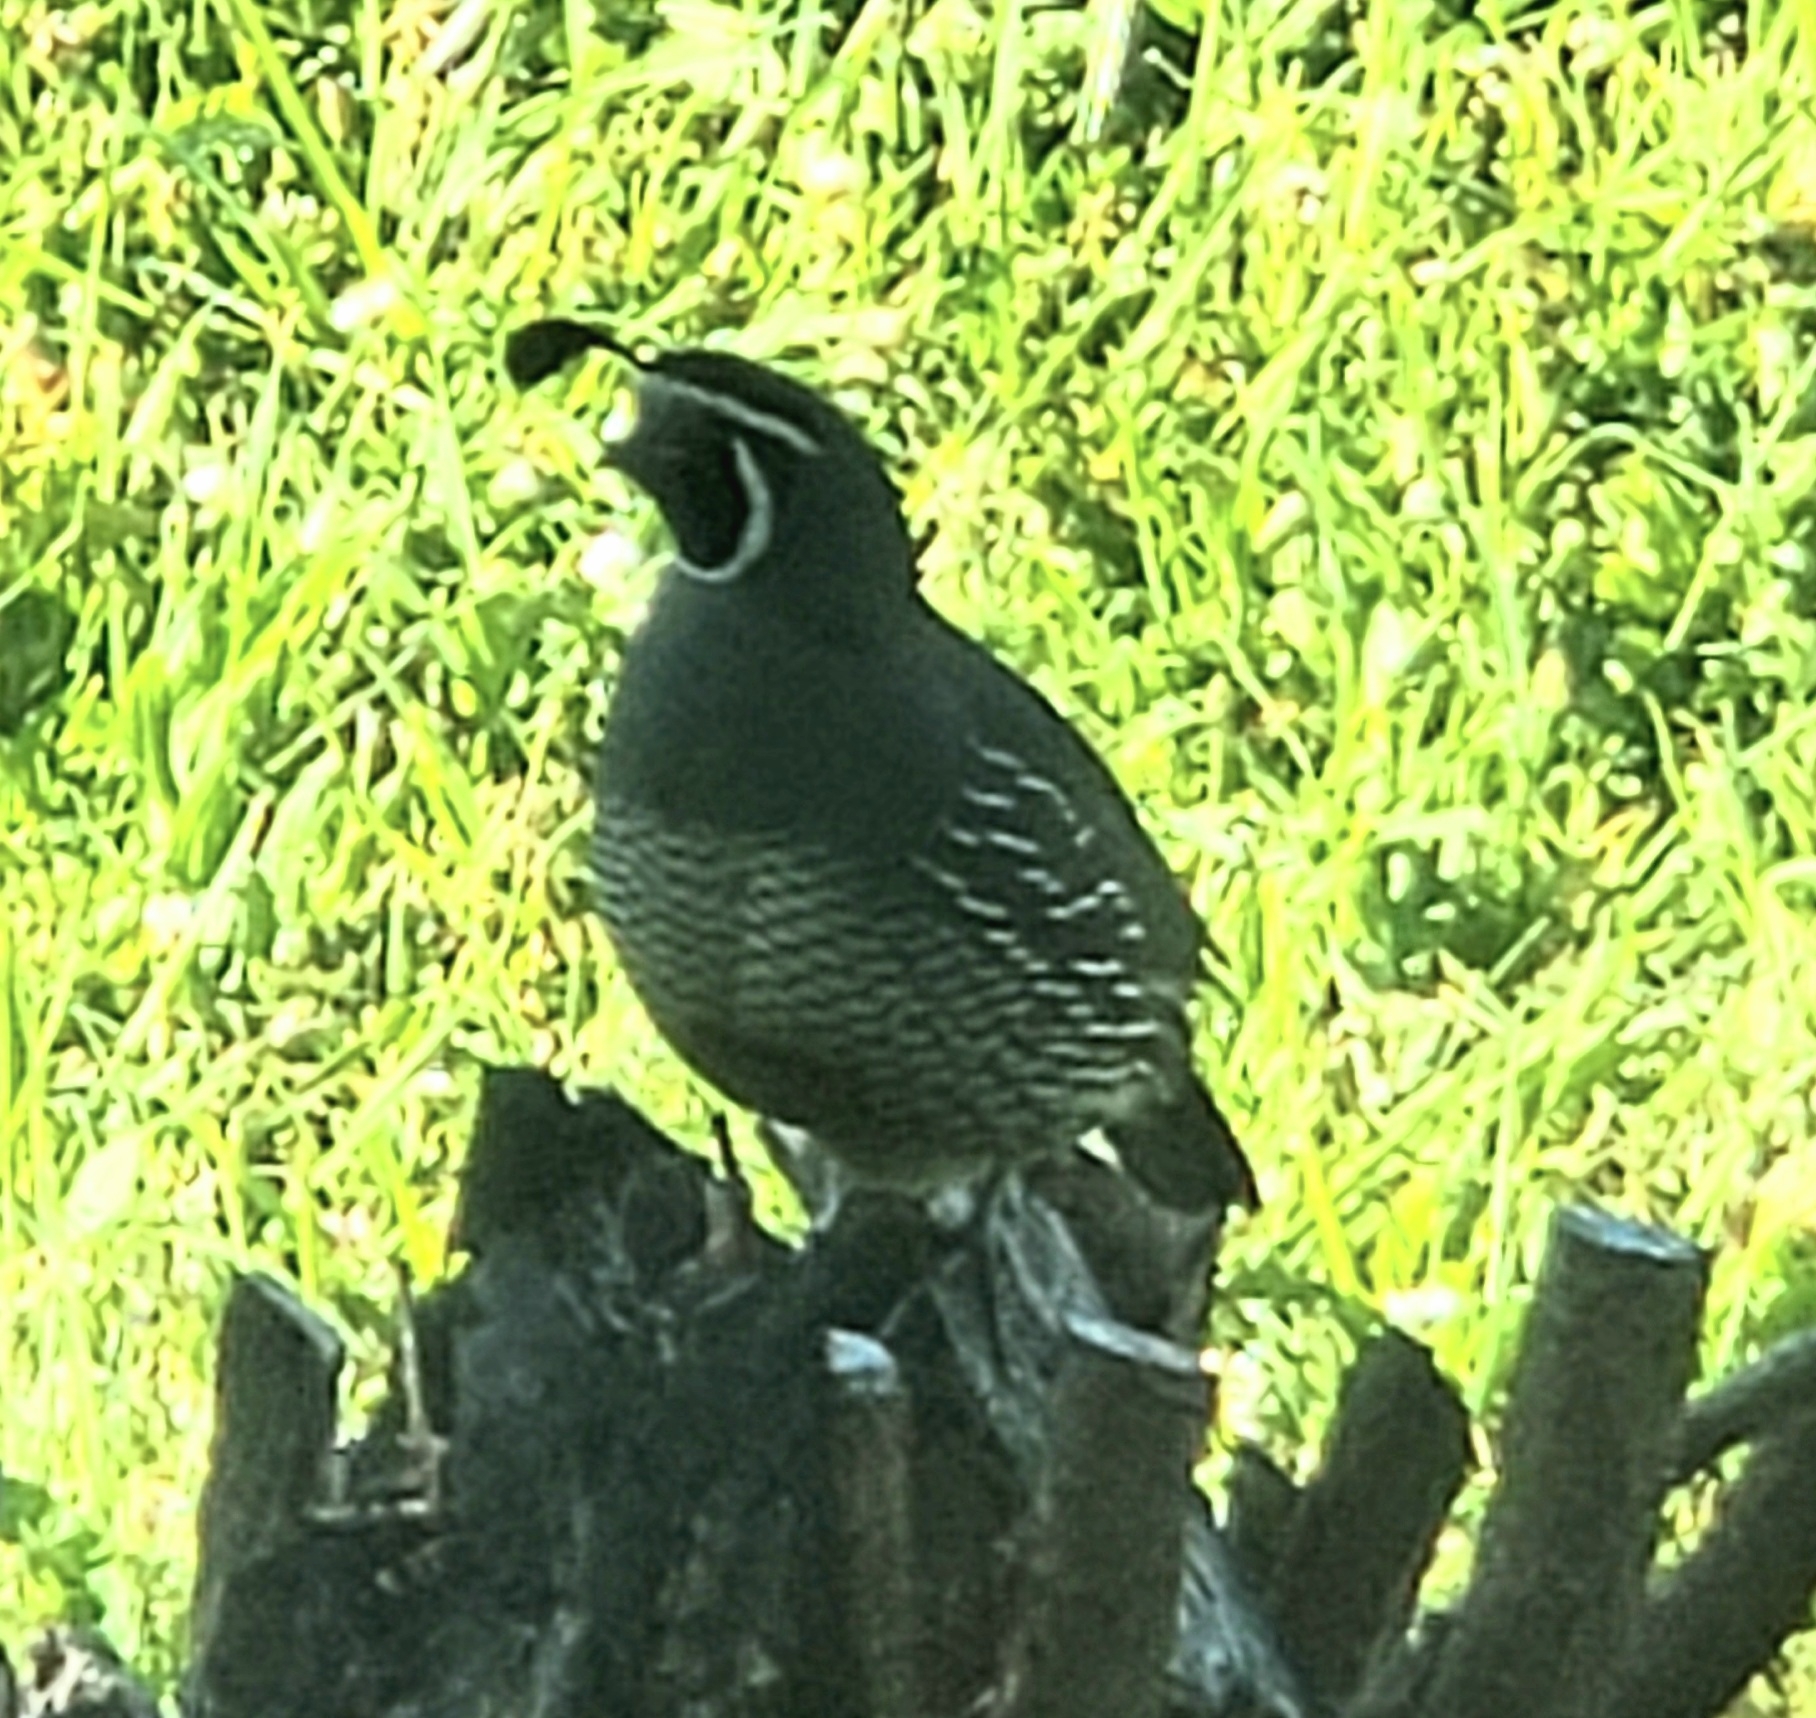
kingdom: Animalia
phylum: Chordata
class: Aves
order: Galliformes
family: Odontophoridae
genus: Callipepla
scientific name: Callipepla californica
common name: California quail
